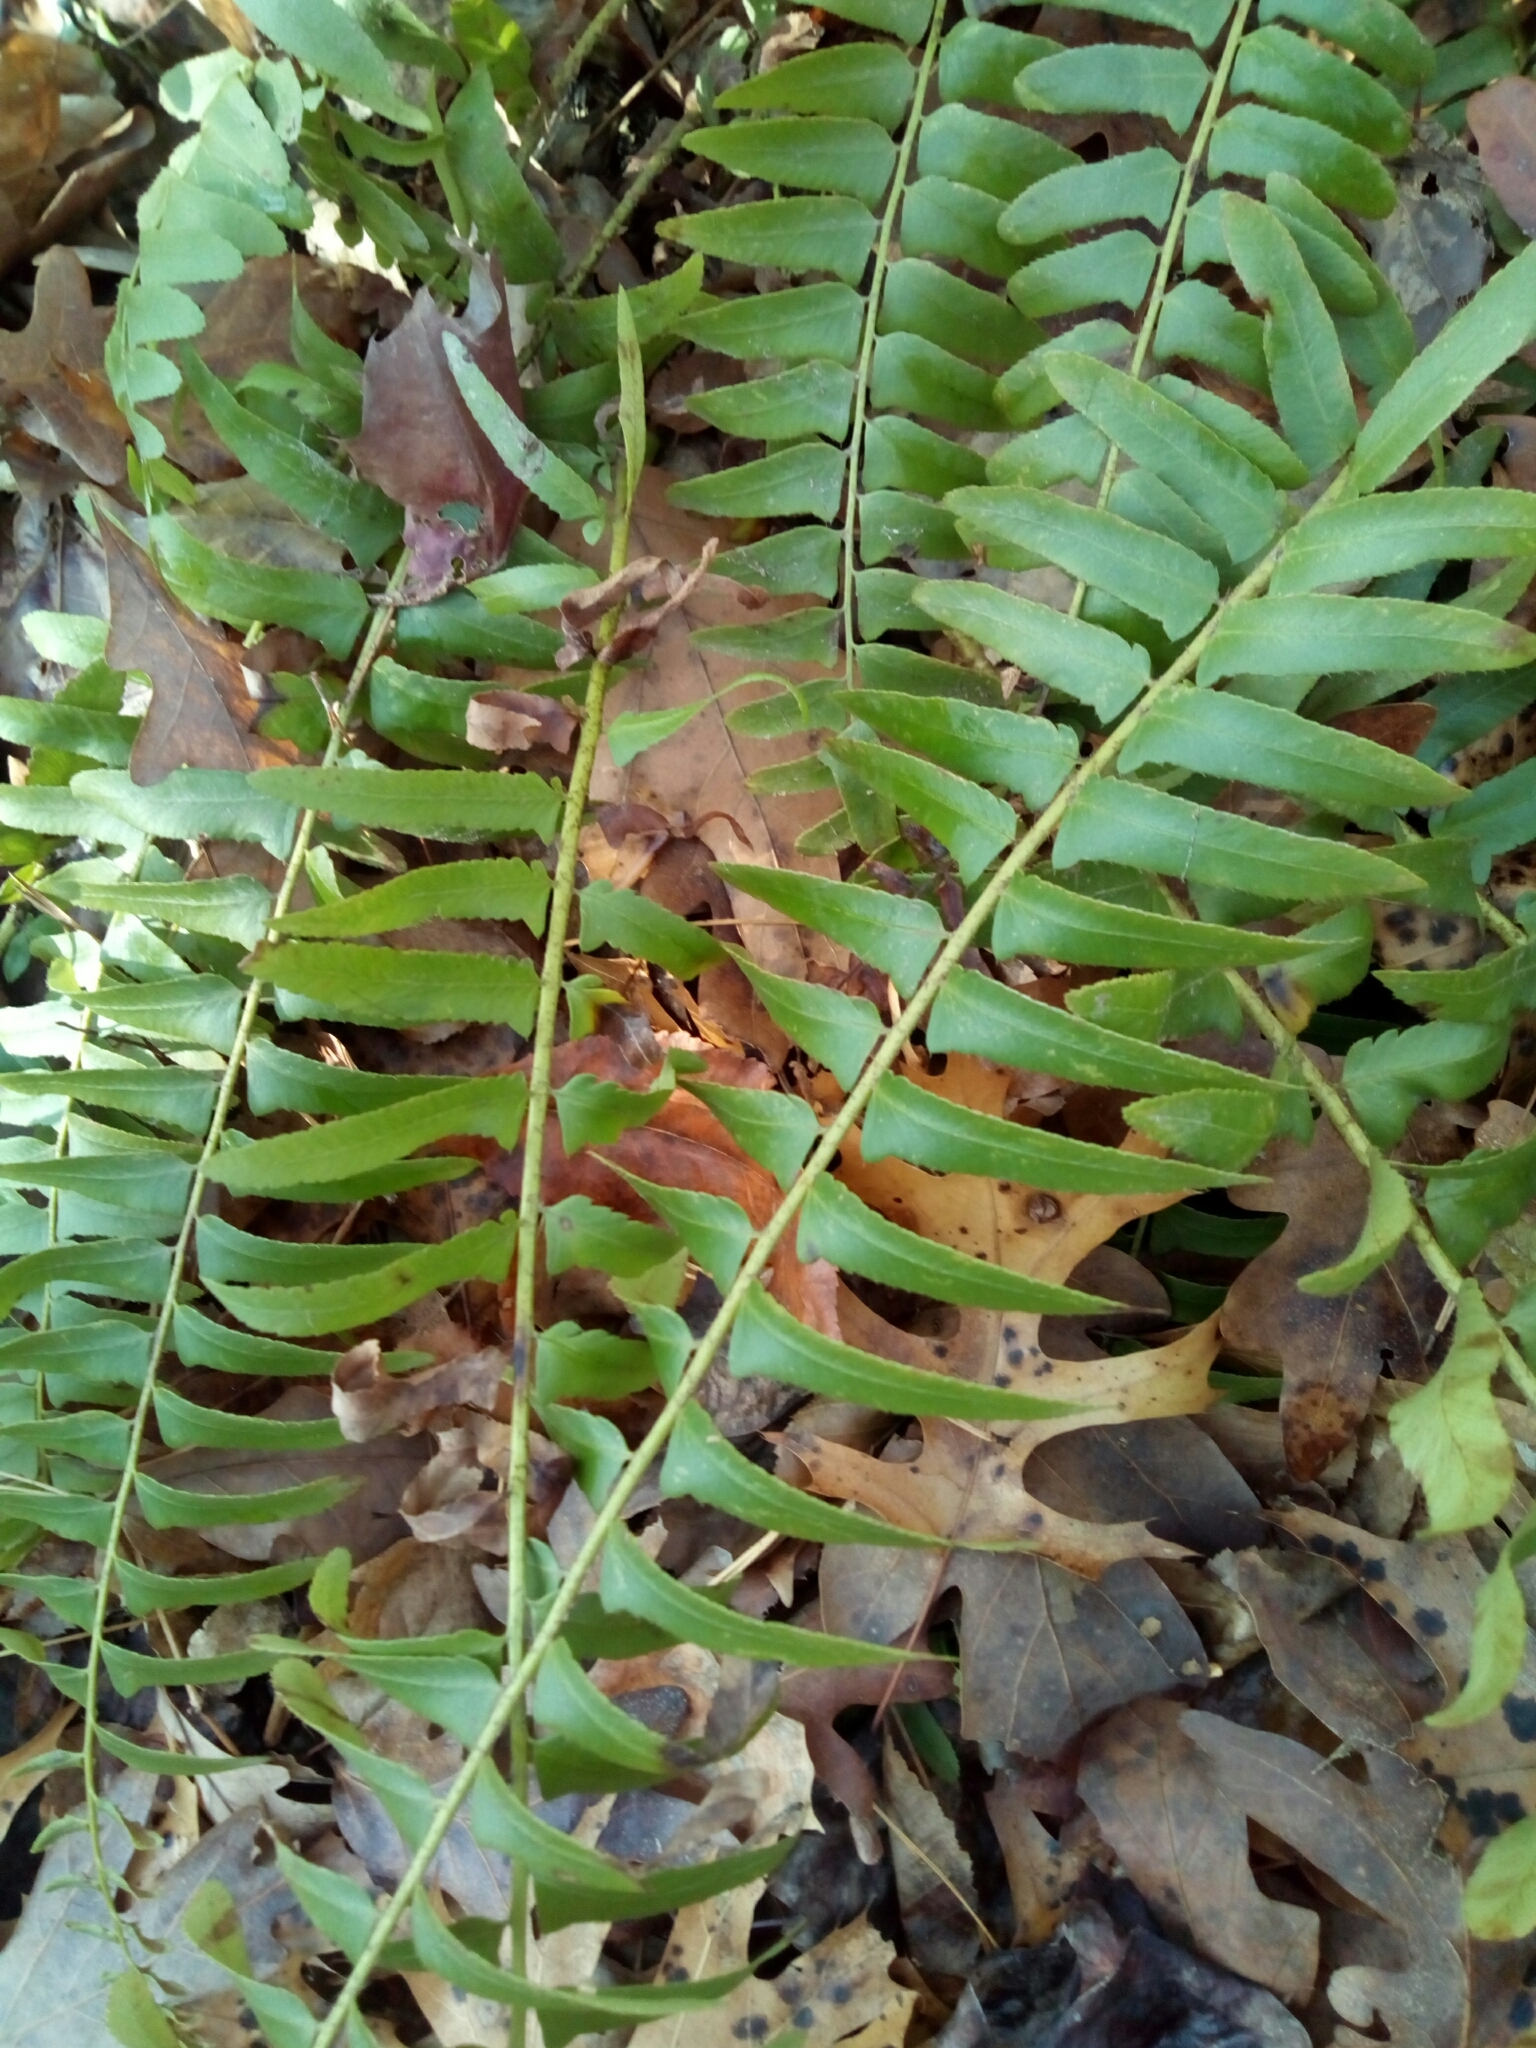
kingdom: Plantae
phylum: Tracheophyta
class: Polypodiopsida
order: Polypodiales
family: Dryopteridaceae
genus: Polystichum
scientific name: Polystichum acrostichoides
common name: Christmas fern
